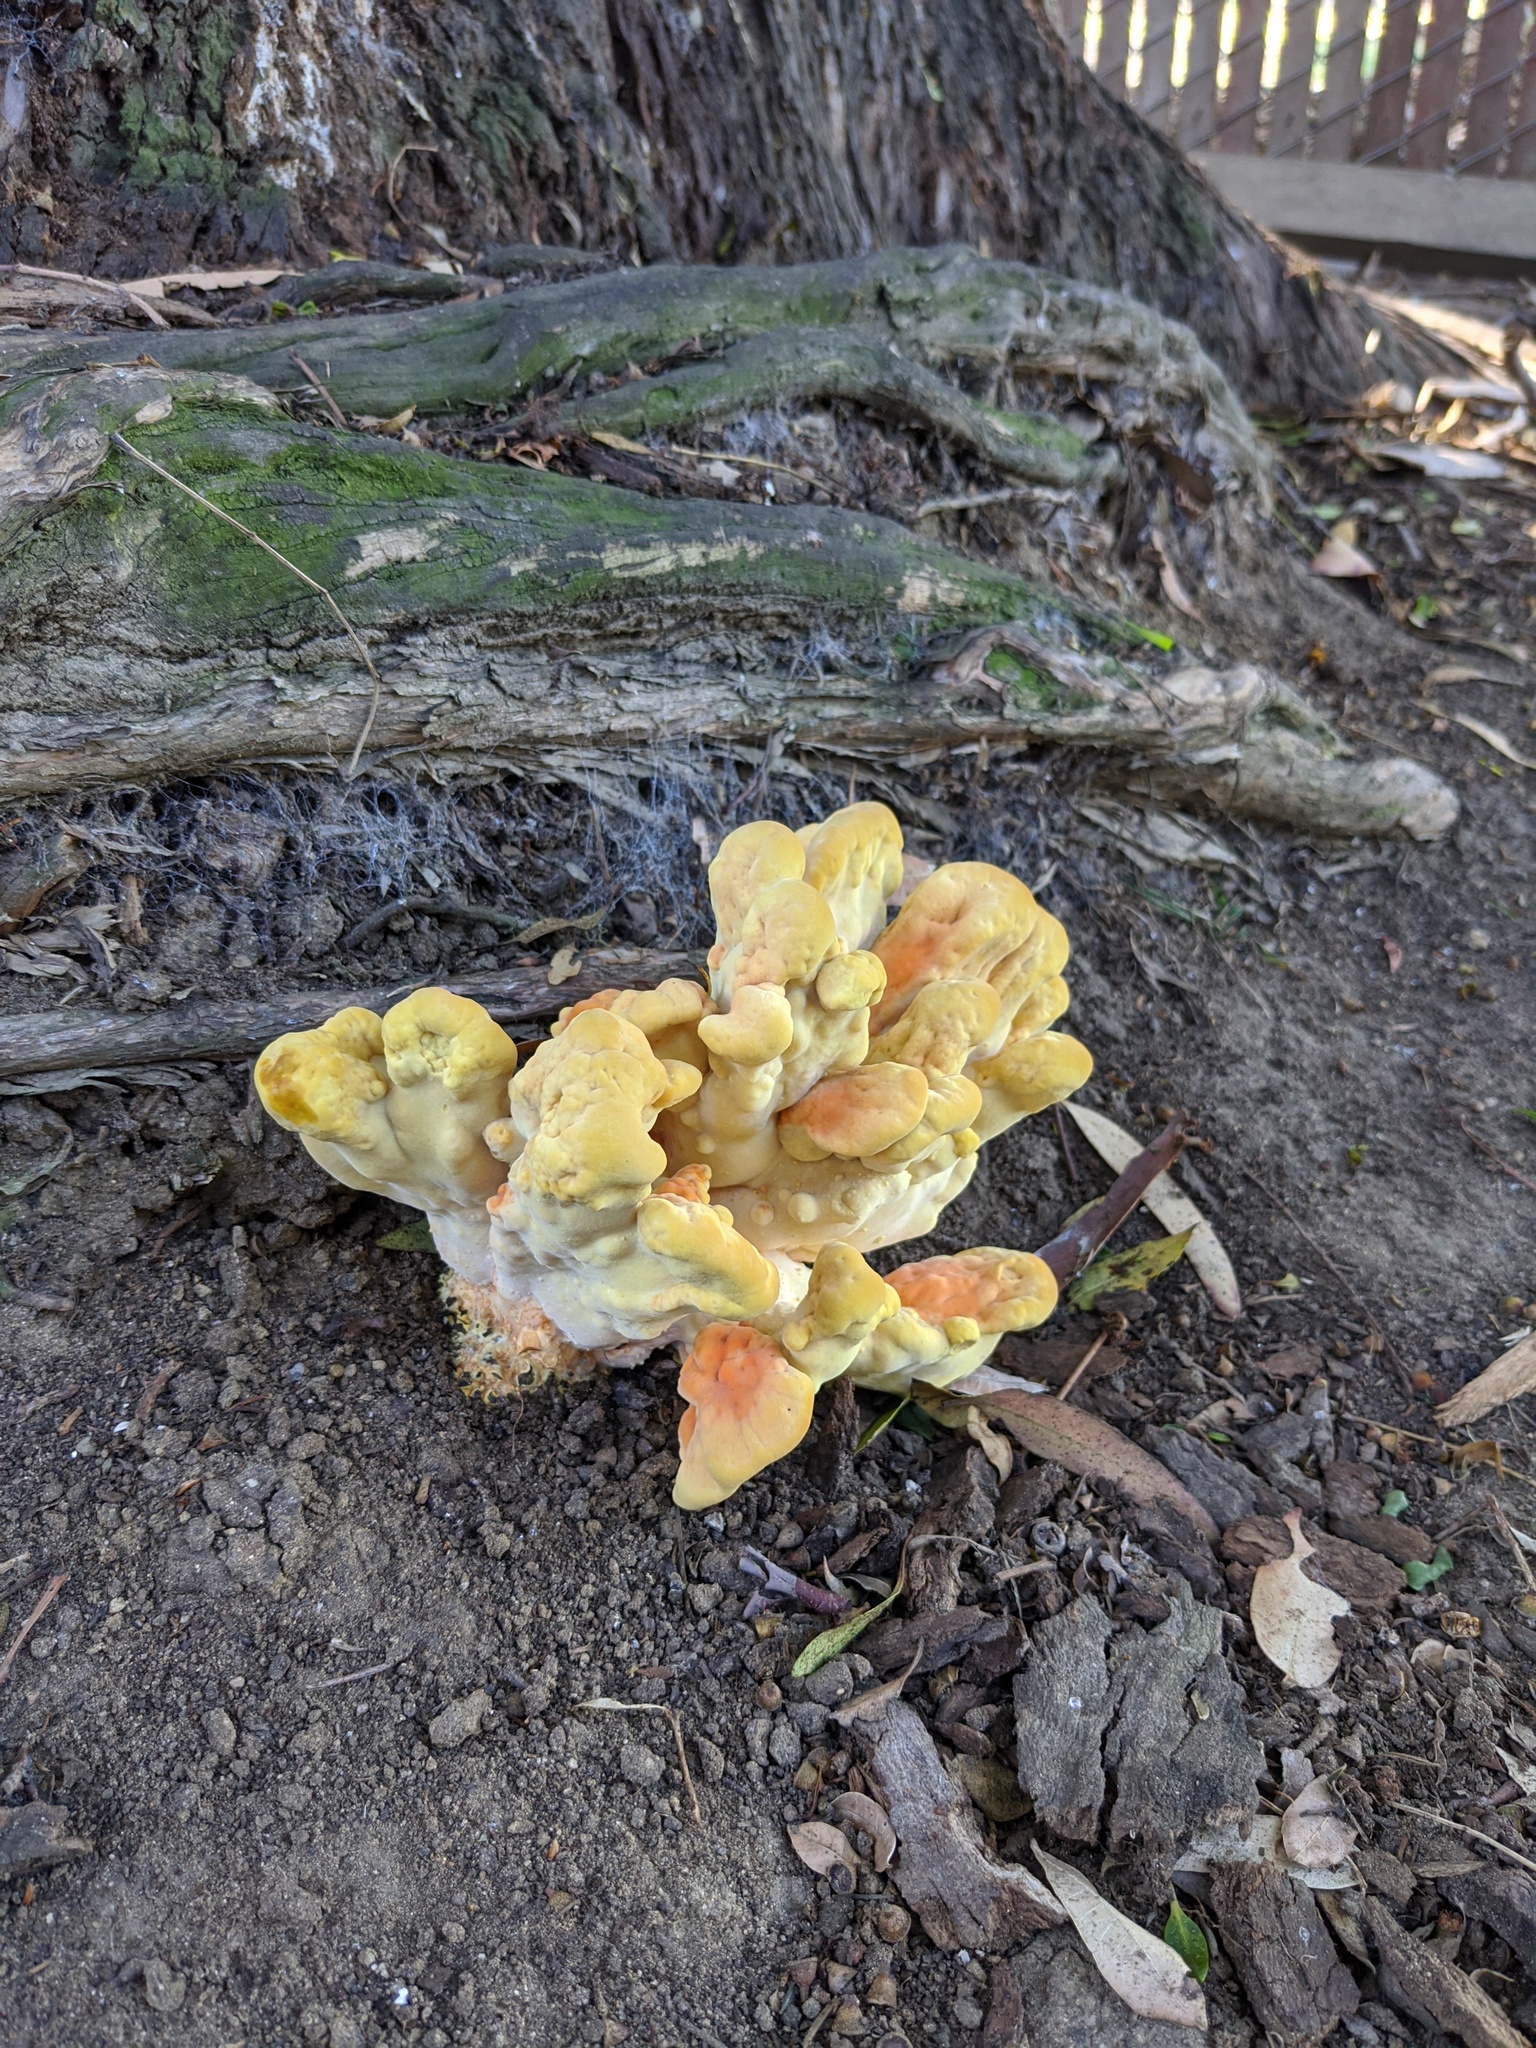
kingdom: Fungi
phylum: Basidiomycota
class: Agaricomycetes
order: Polyporales
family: Laetiporaceae
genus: Laetiporus
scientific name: Laetiporus gilbertsonii
